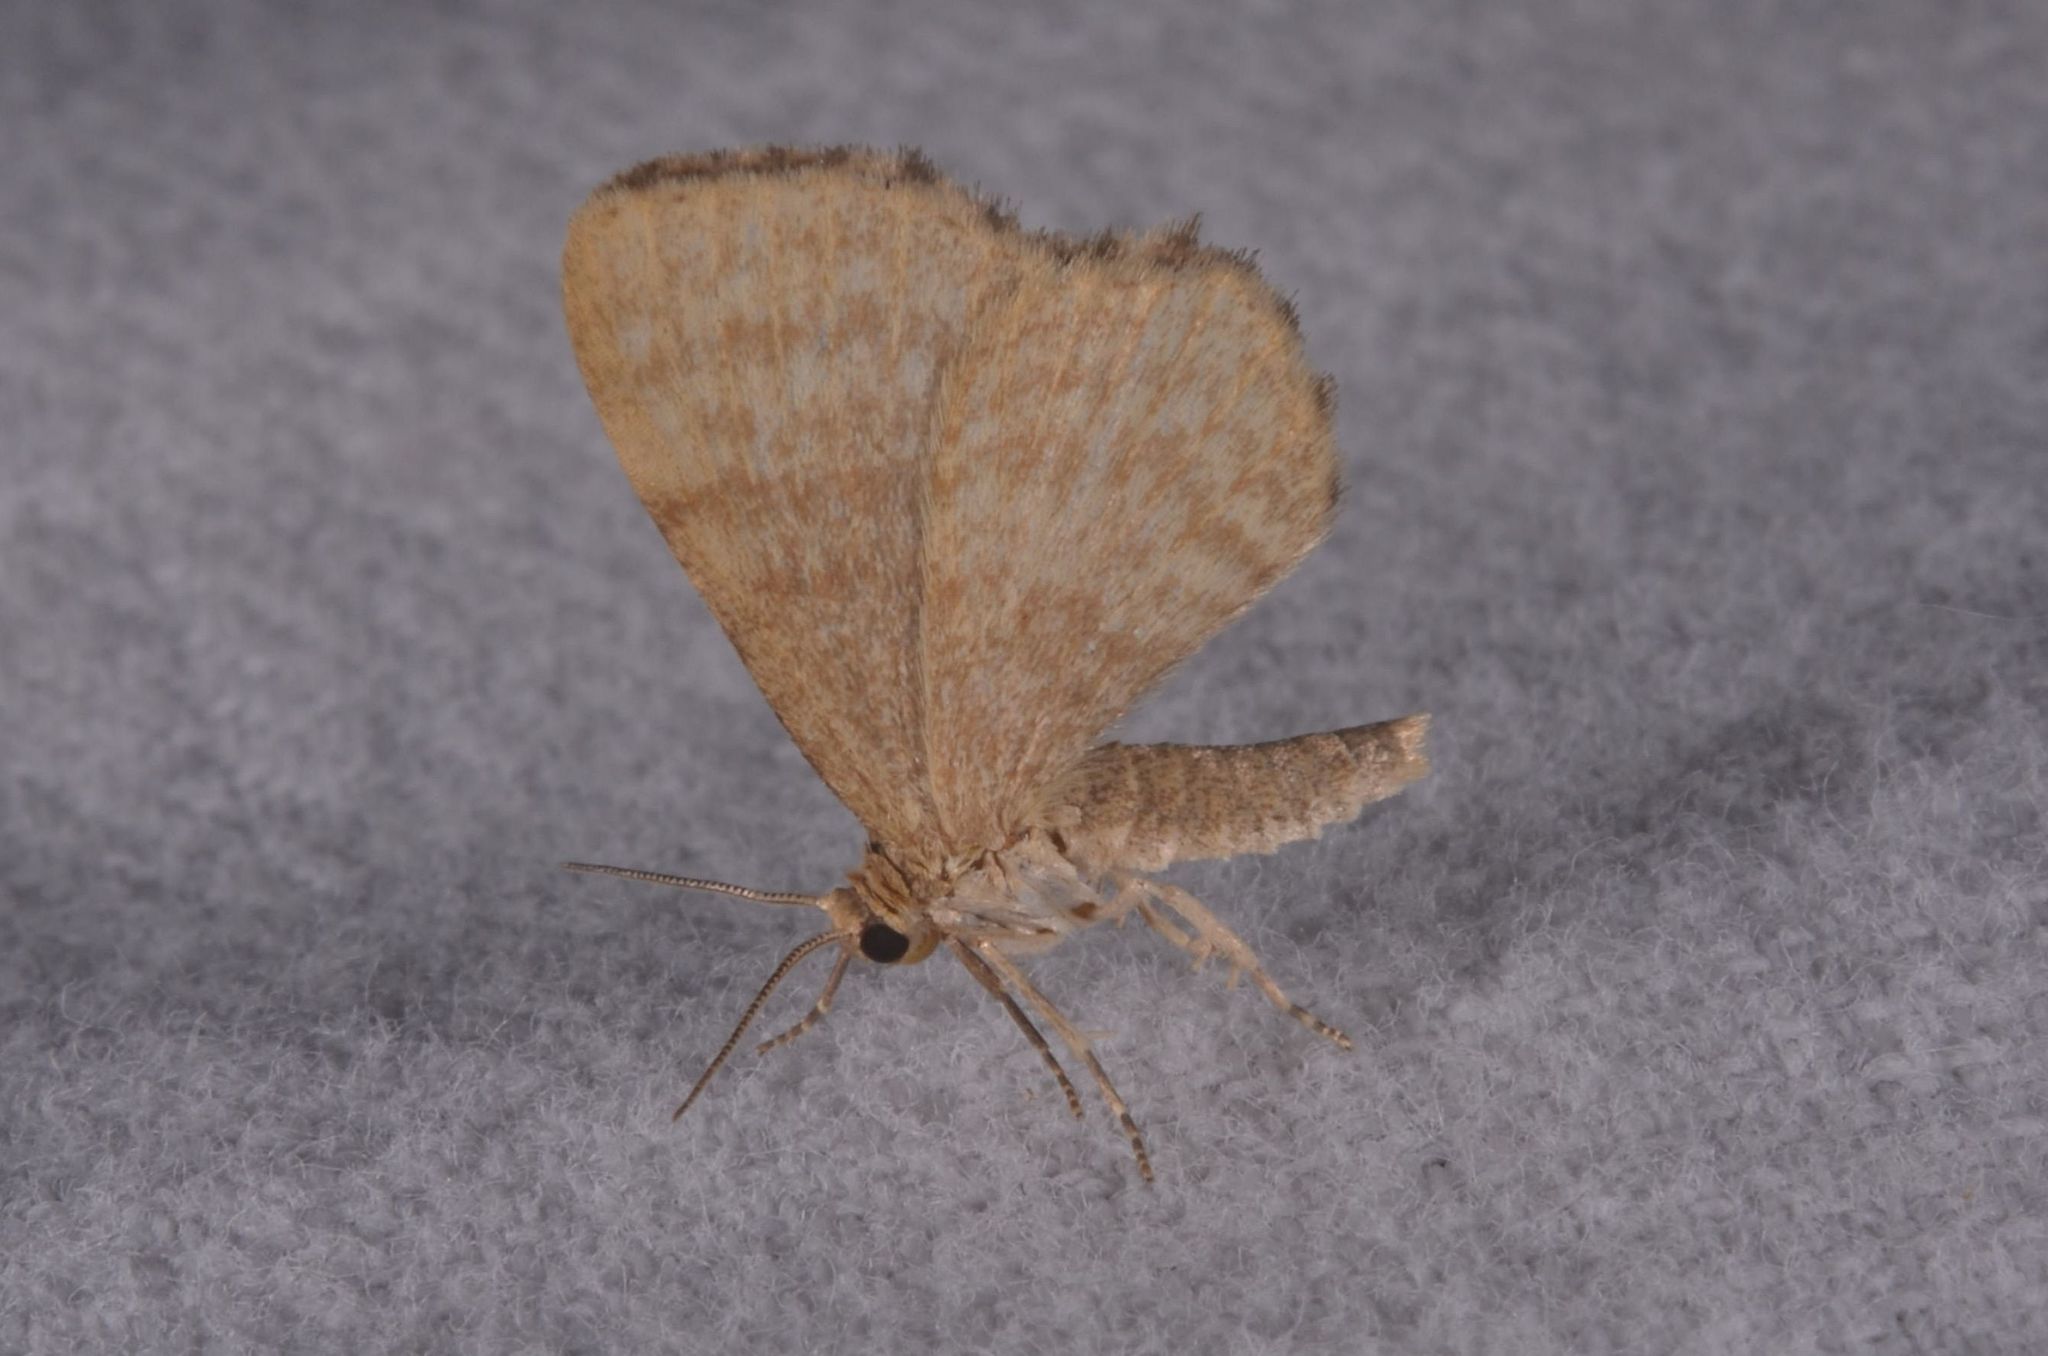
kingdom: Animalia
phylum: Arthropoda
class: Insecta
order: Lepidoptera
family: Geometridae
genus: Euchoeca
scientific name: Euchoeca nebulata
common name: Dingy shell
